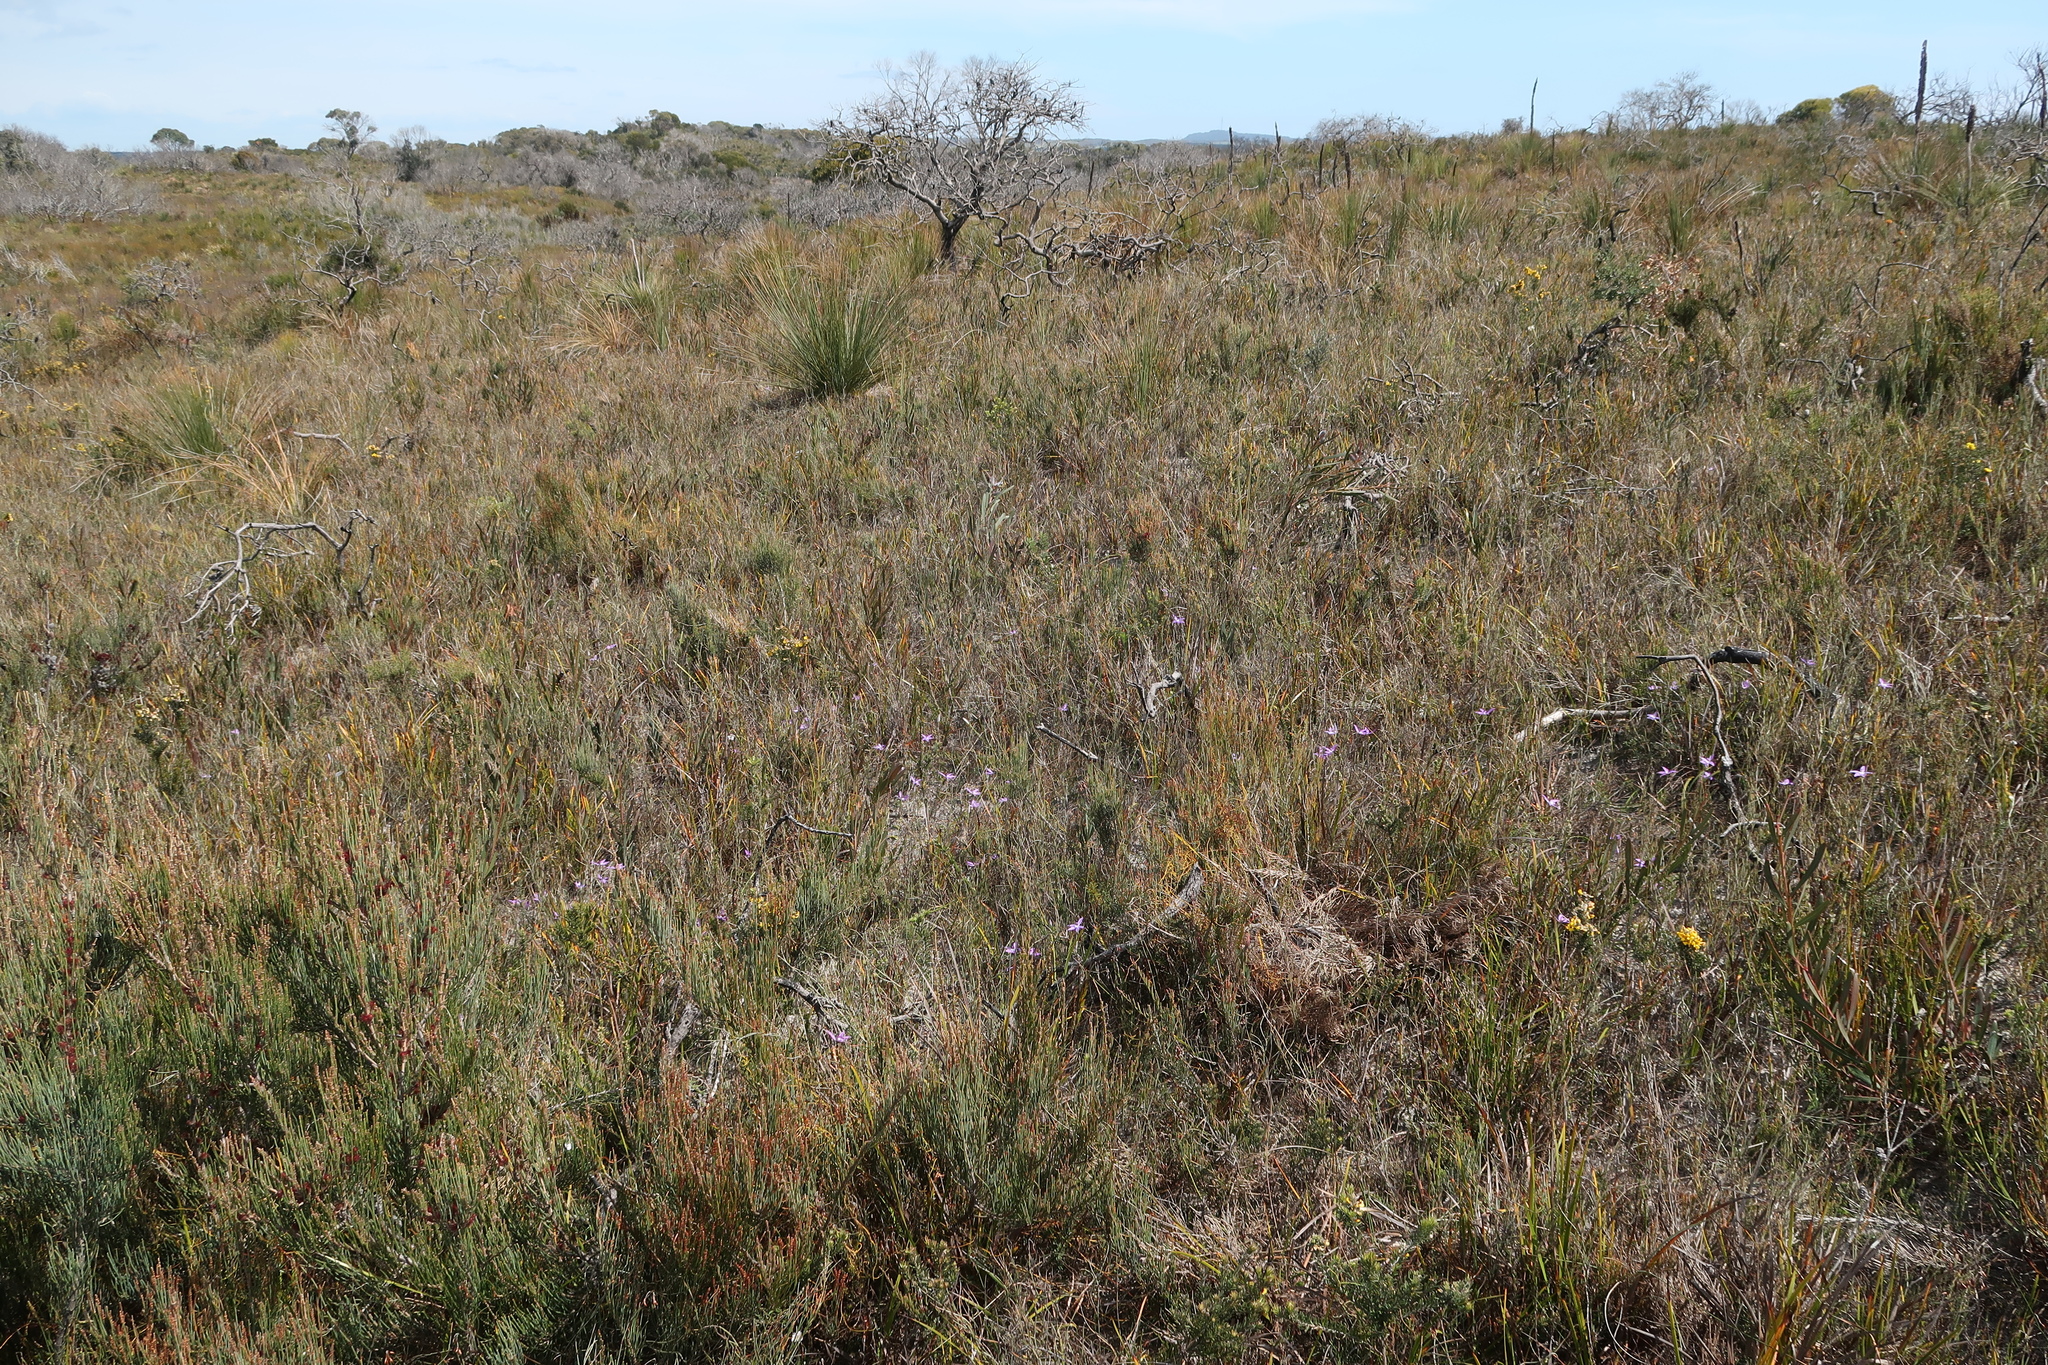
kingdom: Plantae
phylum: Tracheophyta
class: Liliopsida
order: Asparagales
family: Orchidaceae
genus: Caladenia
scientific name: Caladenia major
